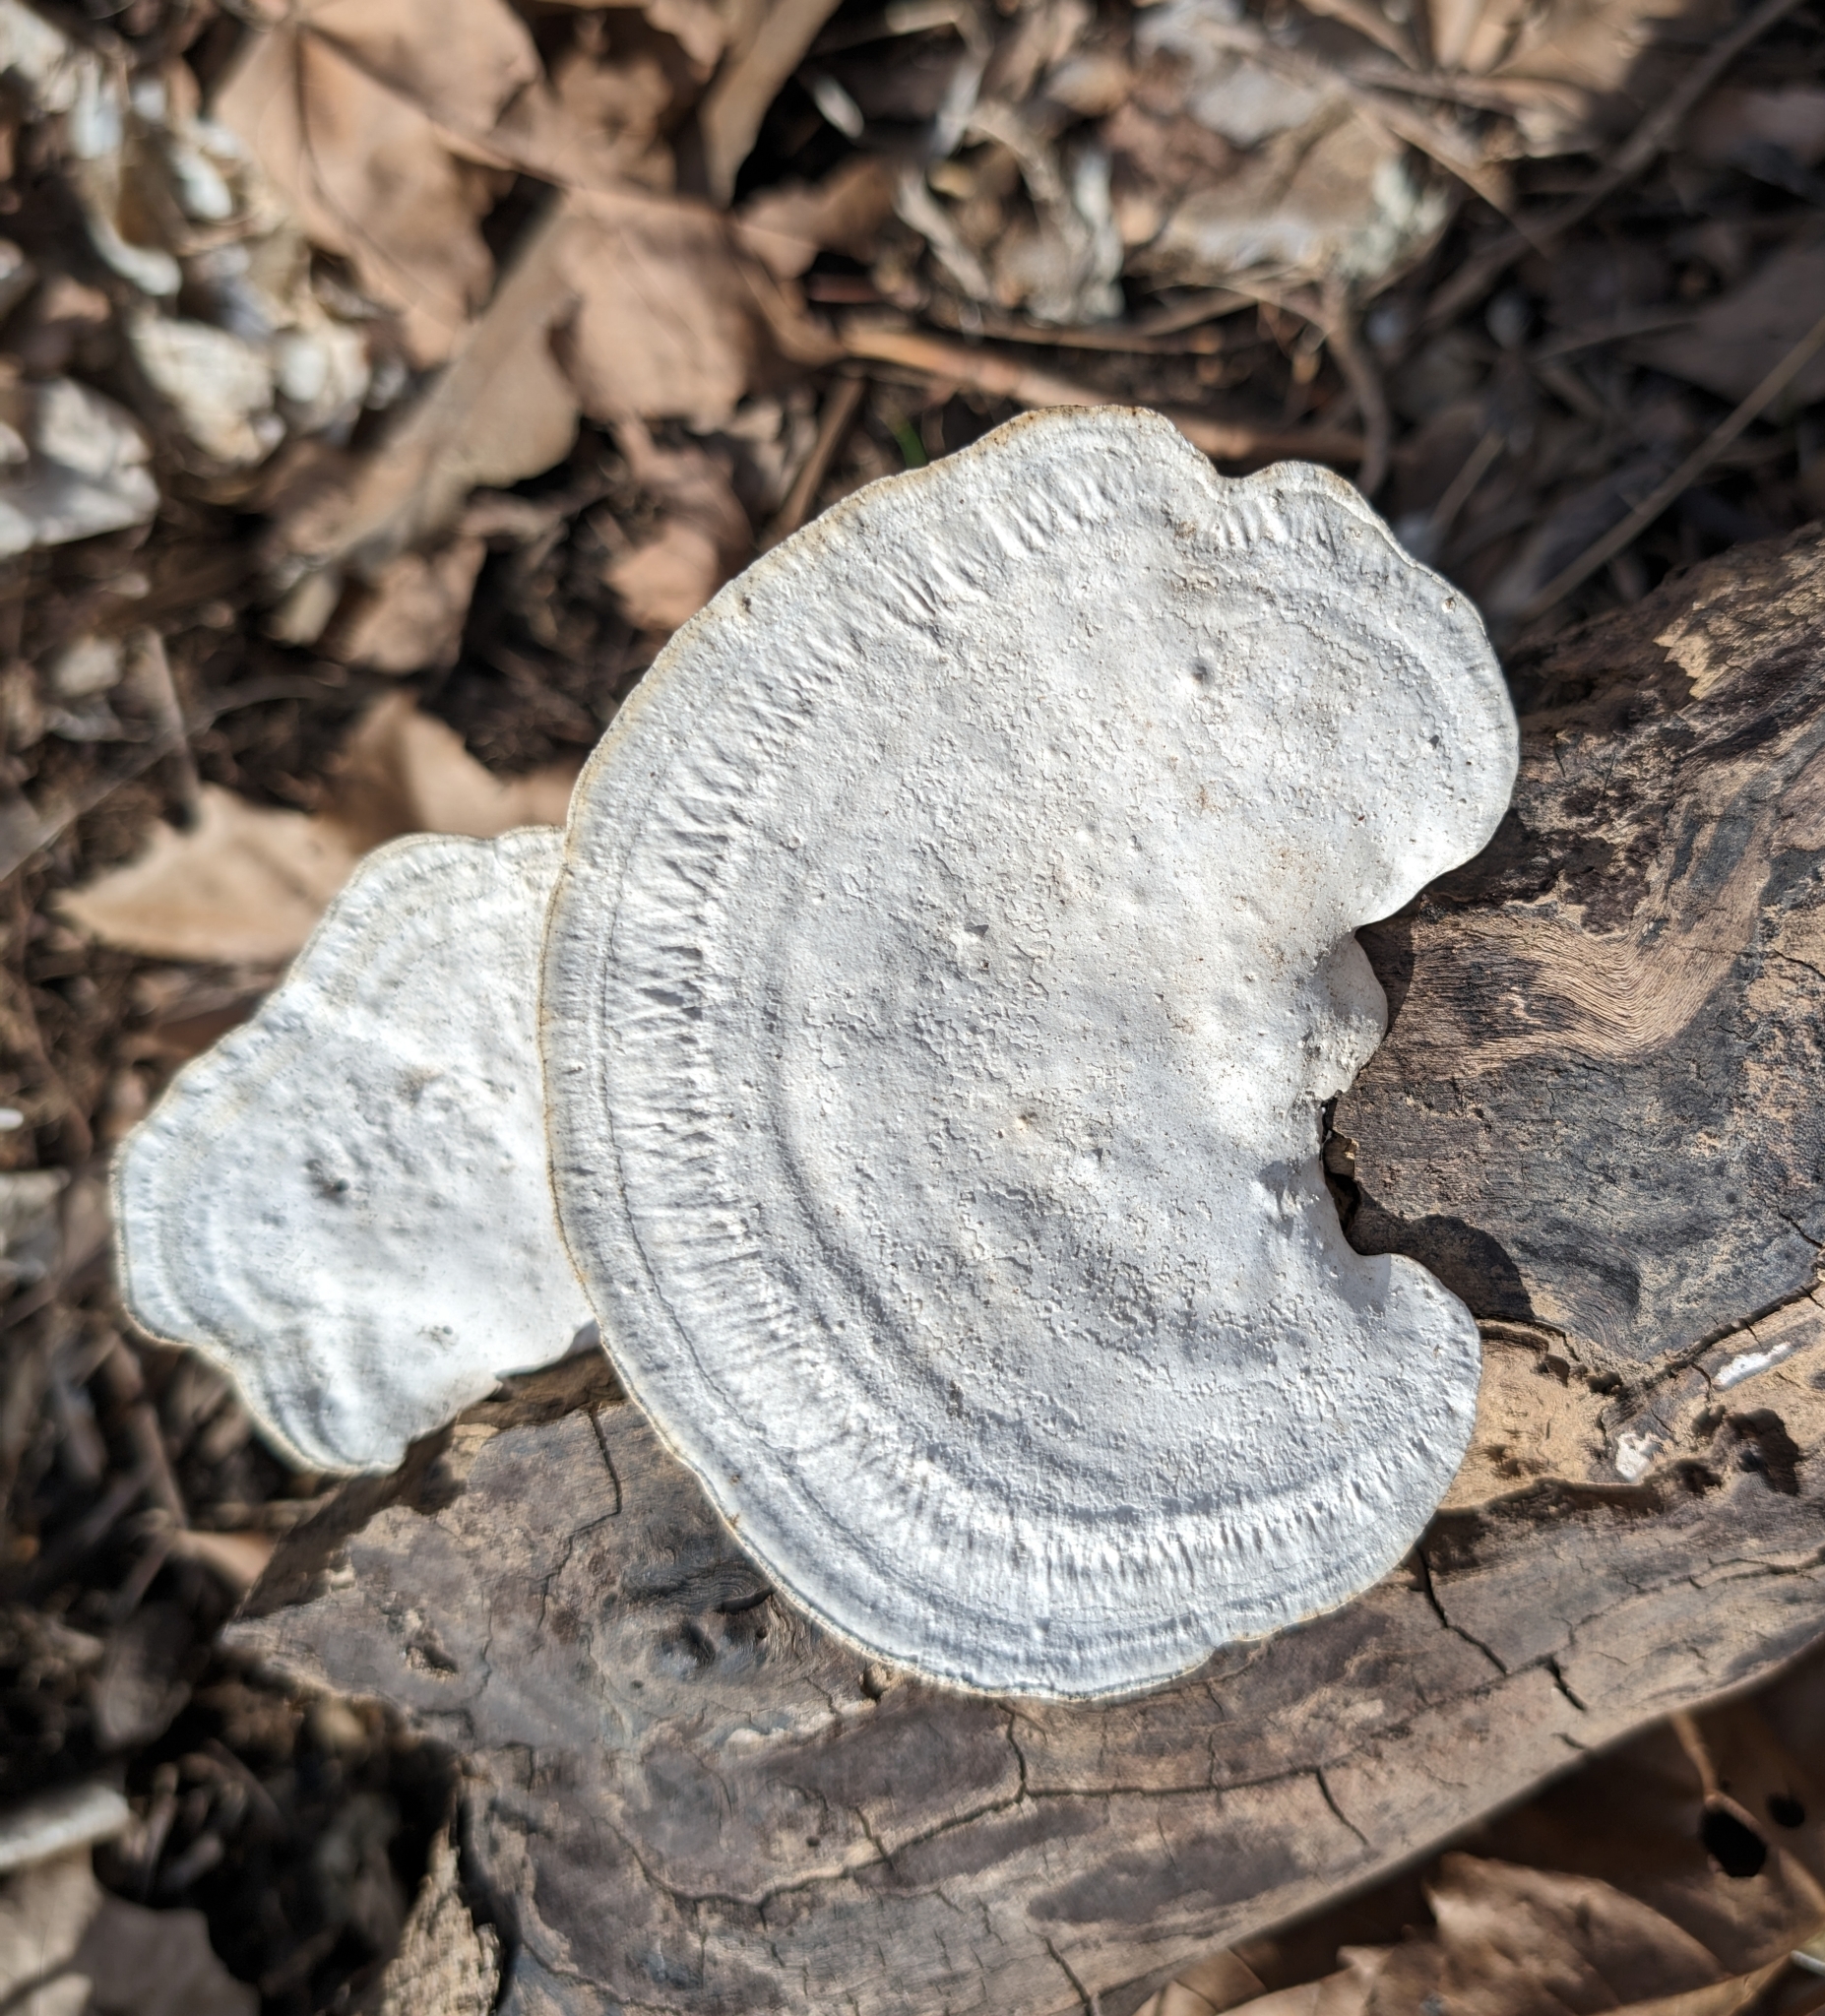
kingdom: Fungi
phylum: Basidiomycota
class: Agaricomycetes
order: Polyporales
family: Polyporaceae
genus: Trametes
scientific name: Trametes
